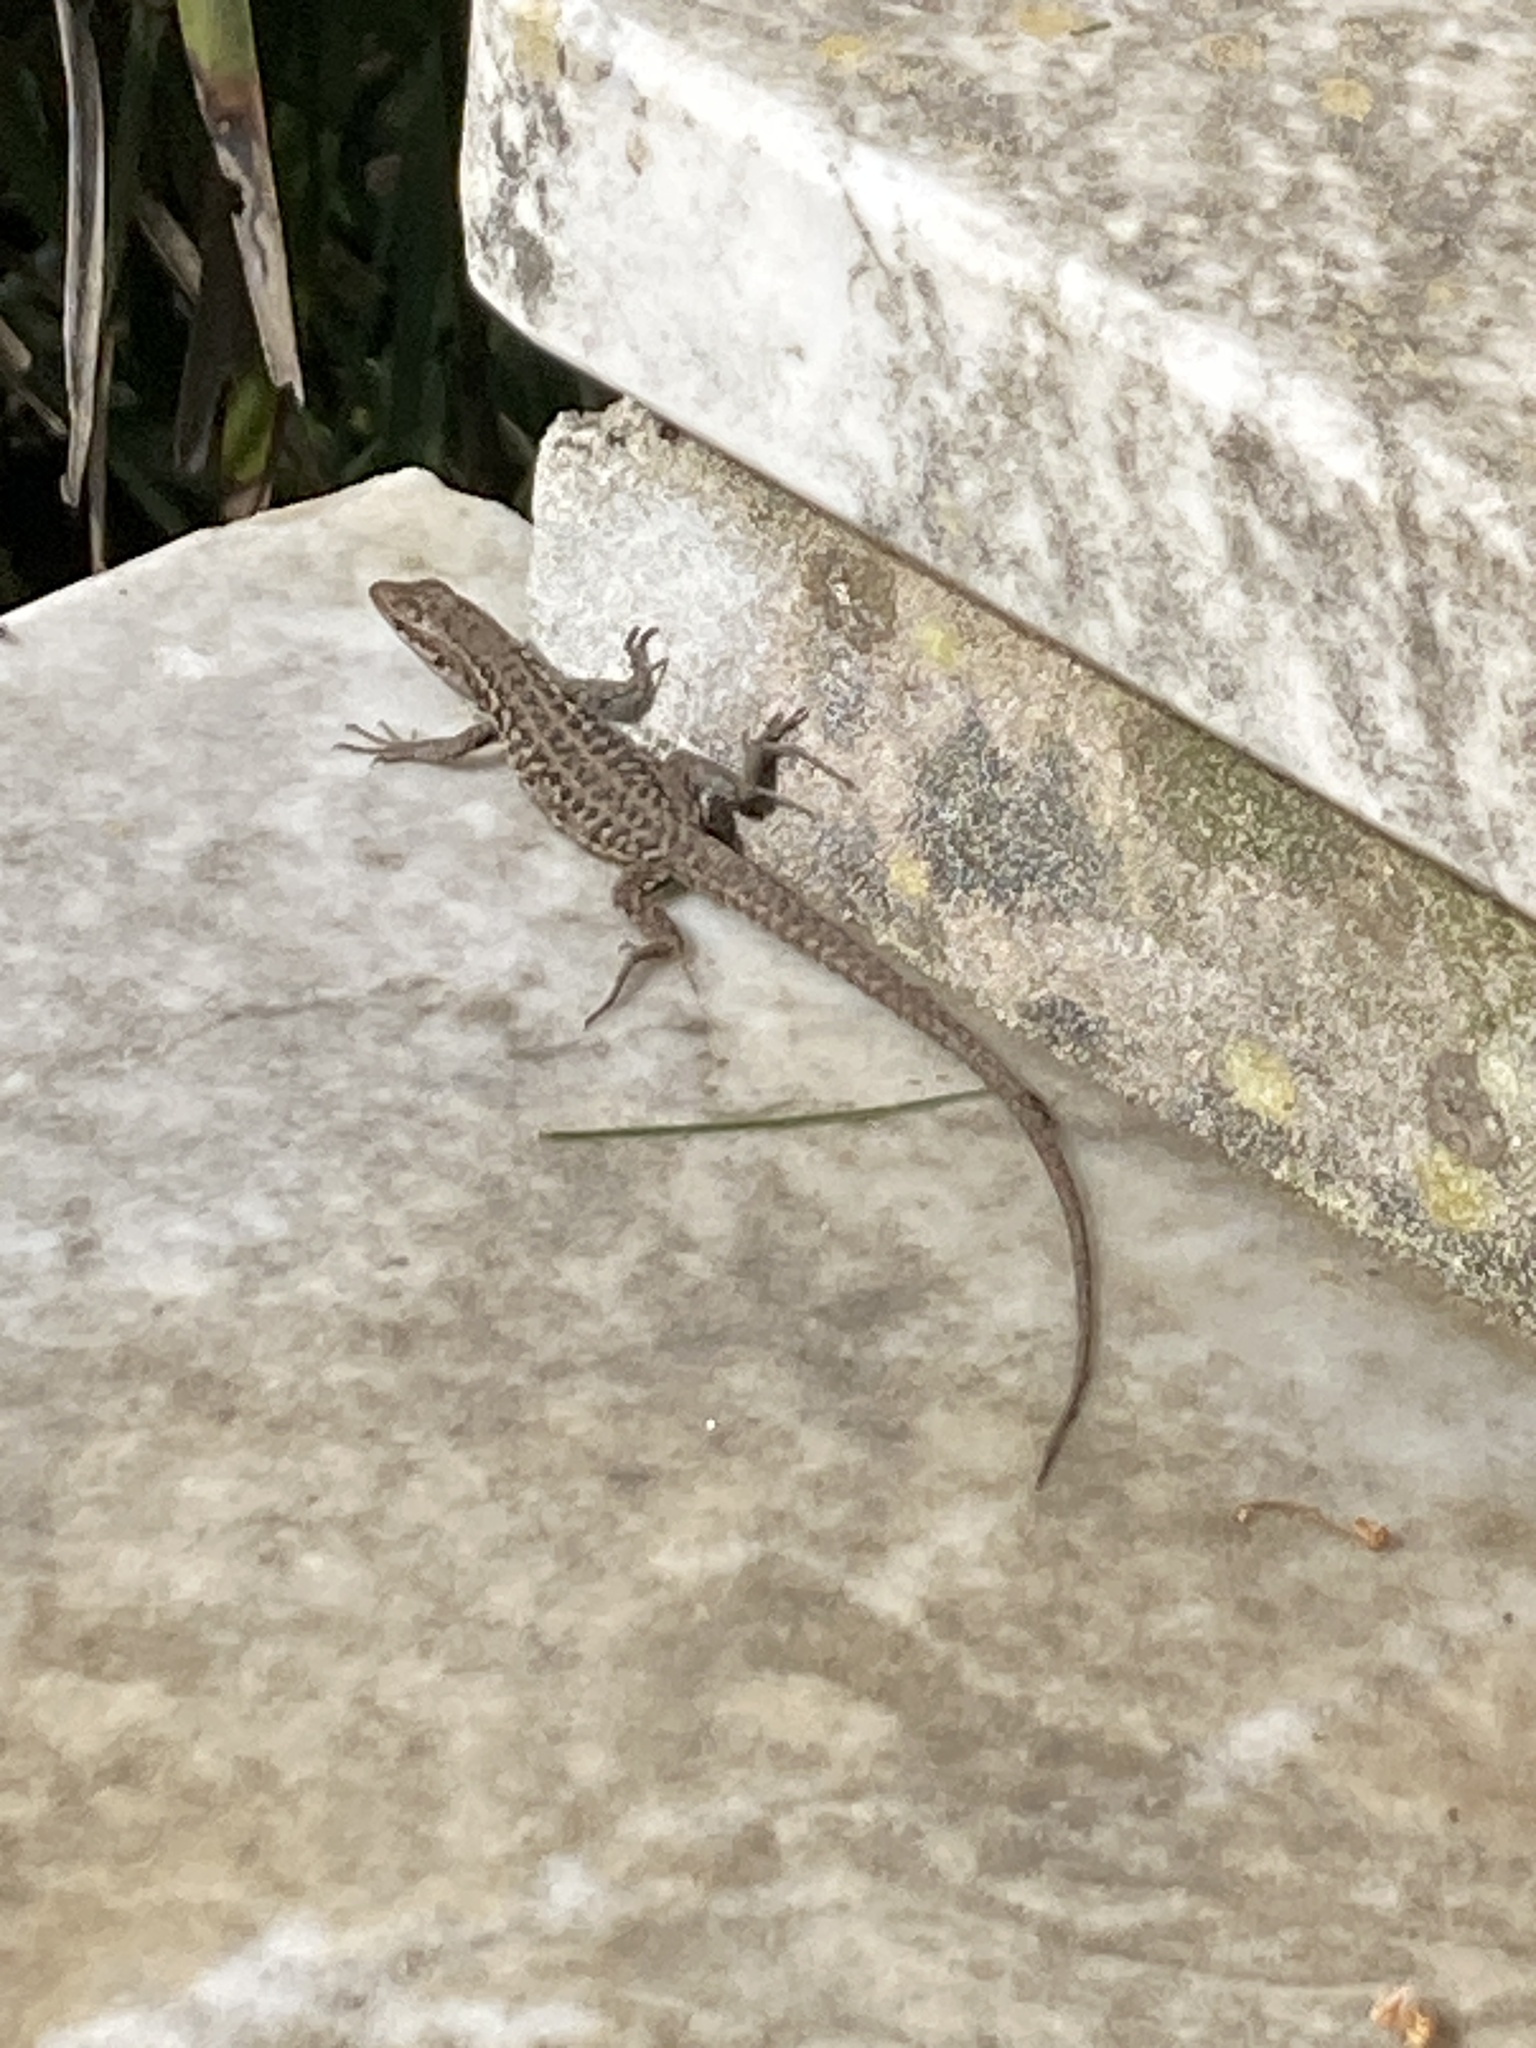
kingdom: Animalia
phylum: Chordata
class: Squamata
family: Lacertidae
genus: Podarcis
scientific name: Podarcis siculus
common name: Italian wall lizard
